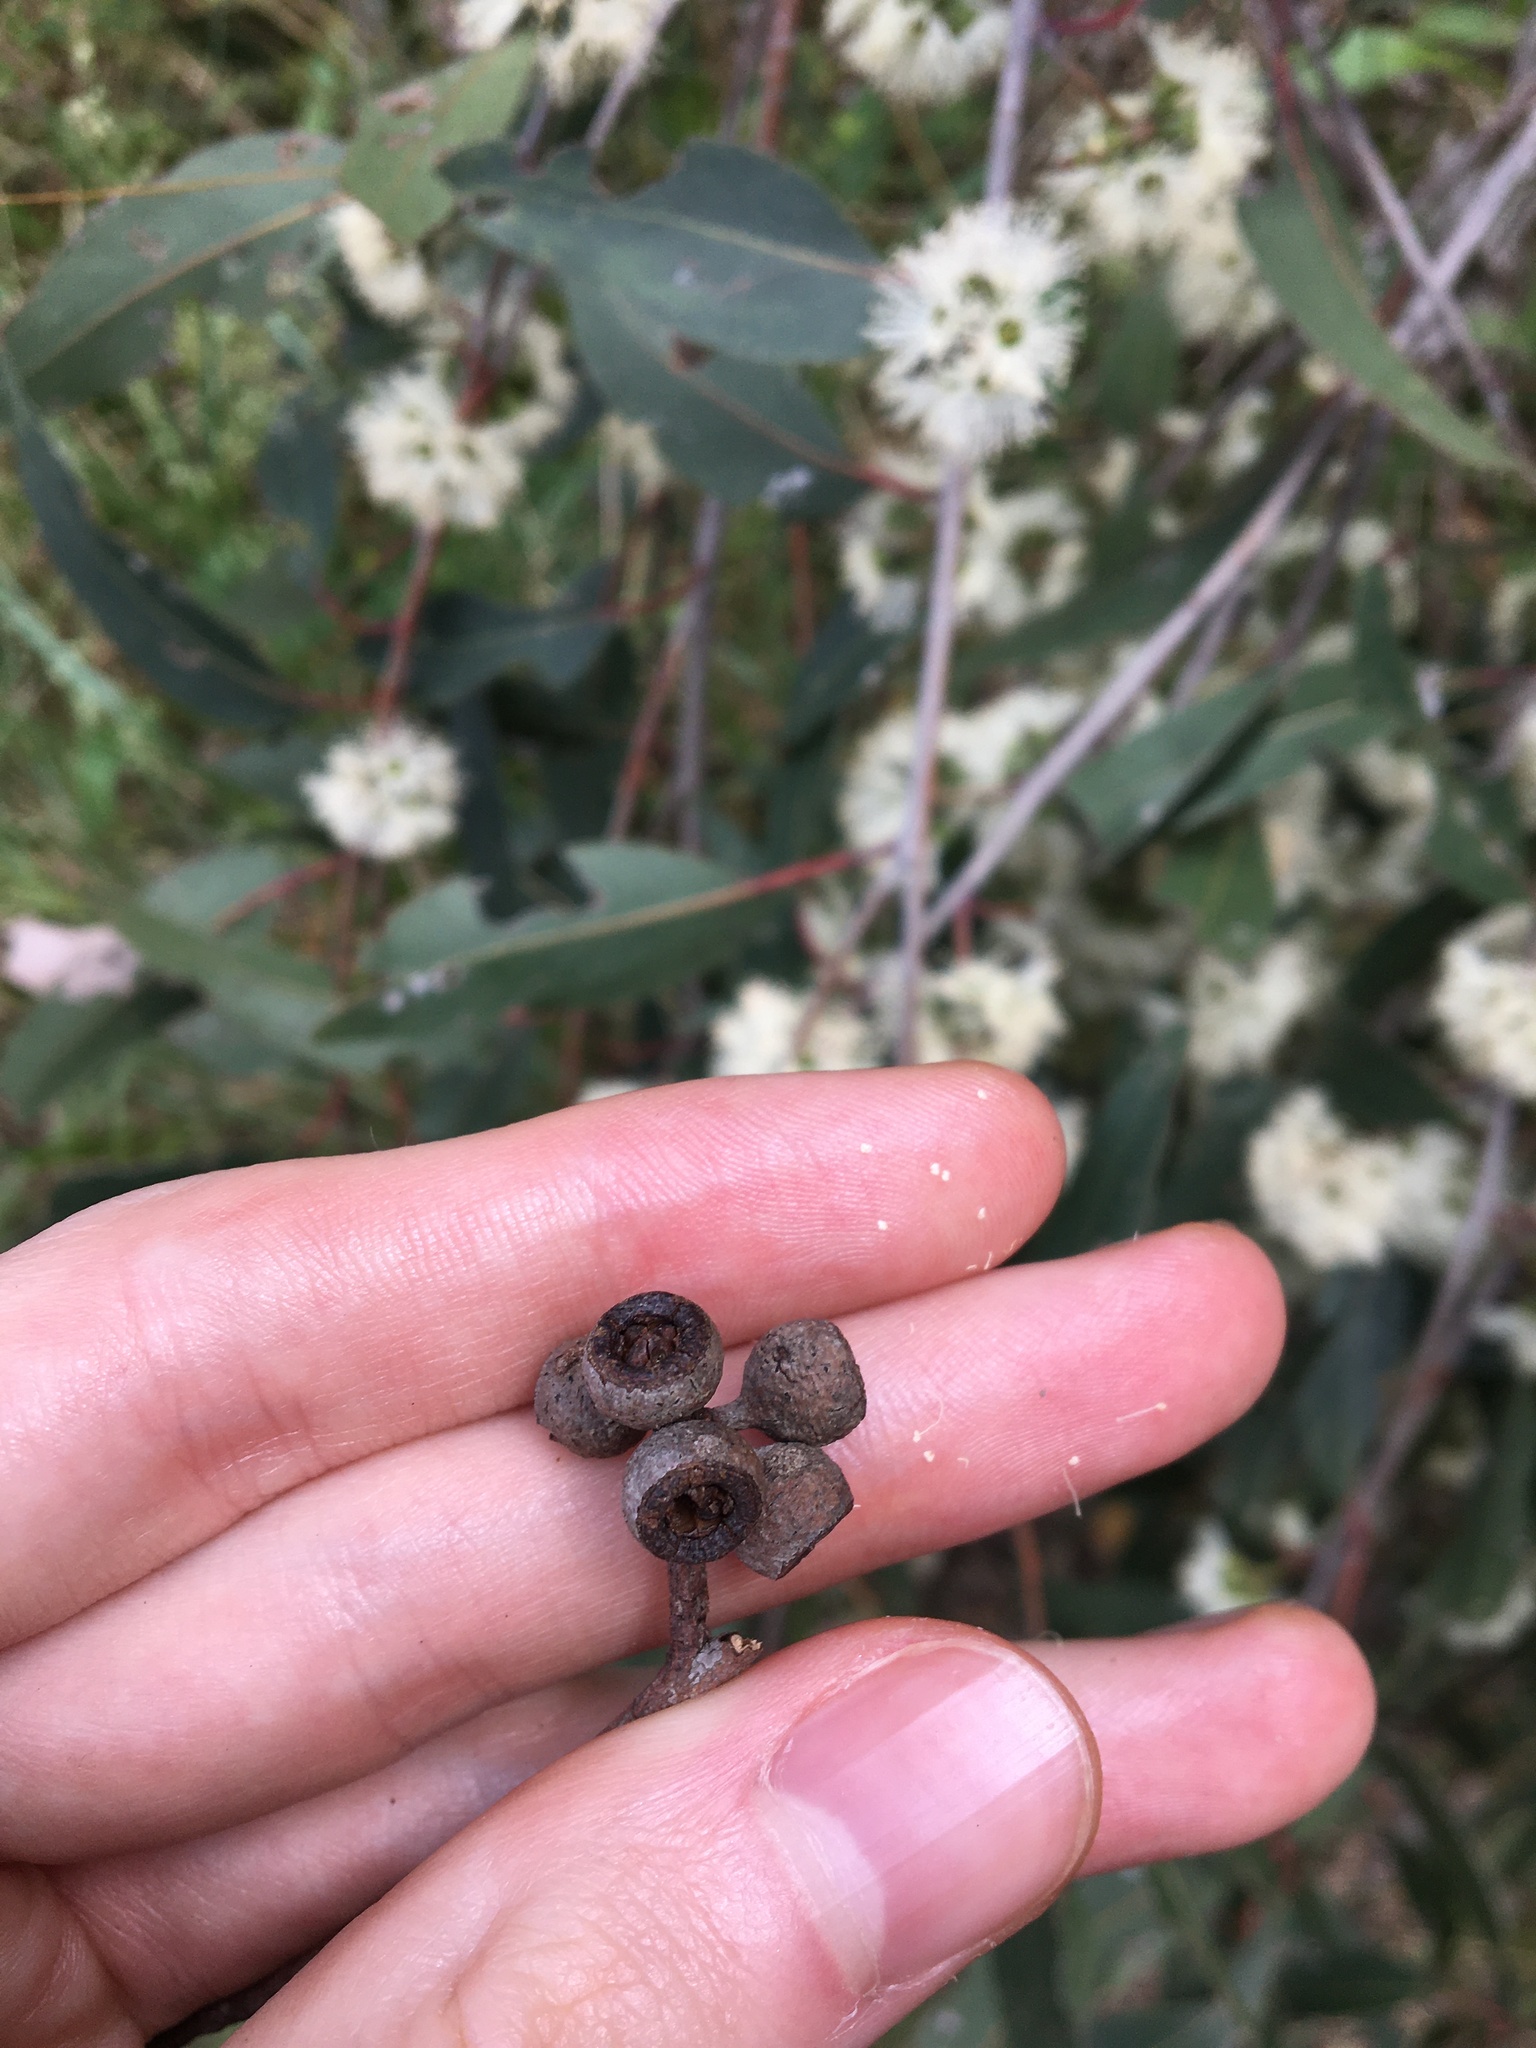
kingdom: Plantae
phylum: Tracheophyta
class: Magnoliopsida
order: Myrtales
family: Myrtaceae
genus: Eucalyptus
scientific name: Eucalyptus eugenioides
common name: Narrow-leaved-stringybark
